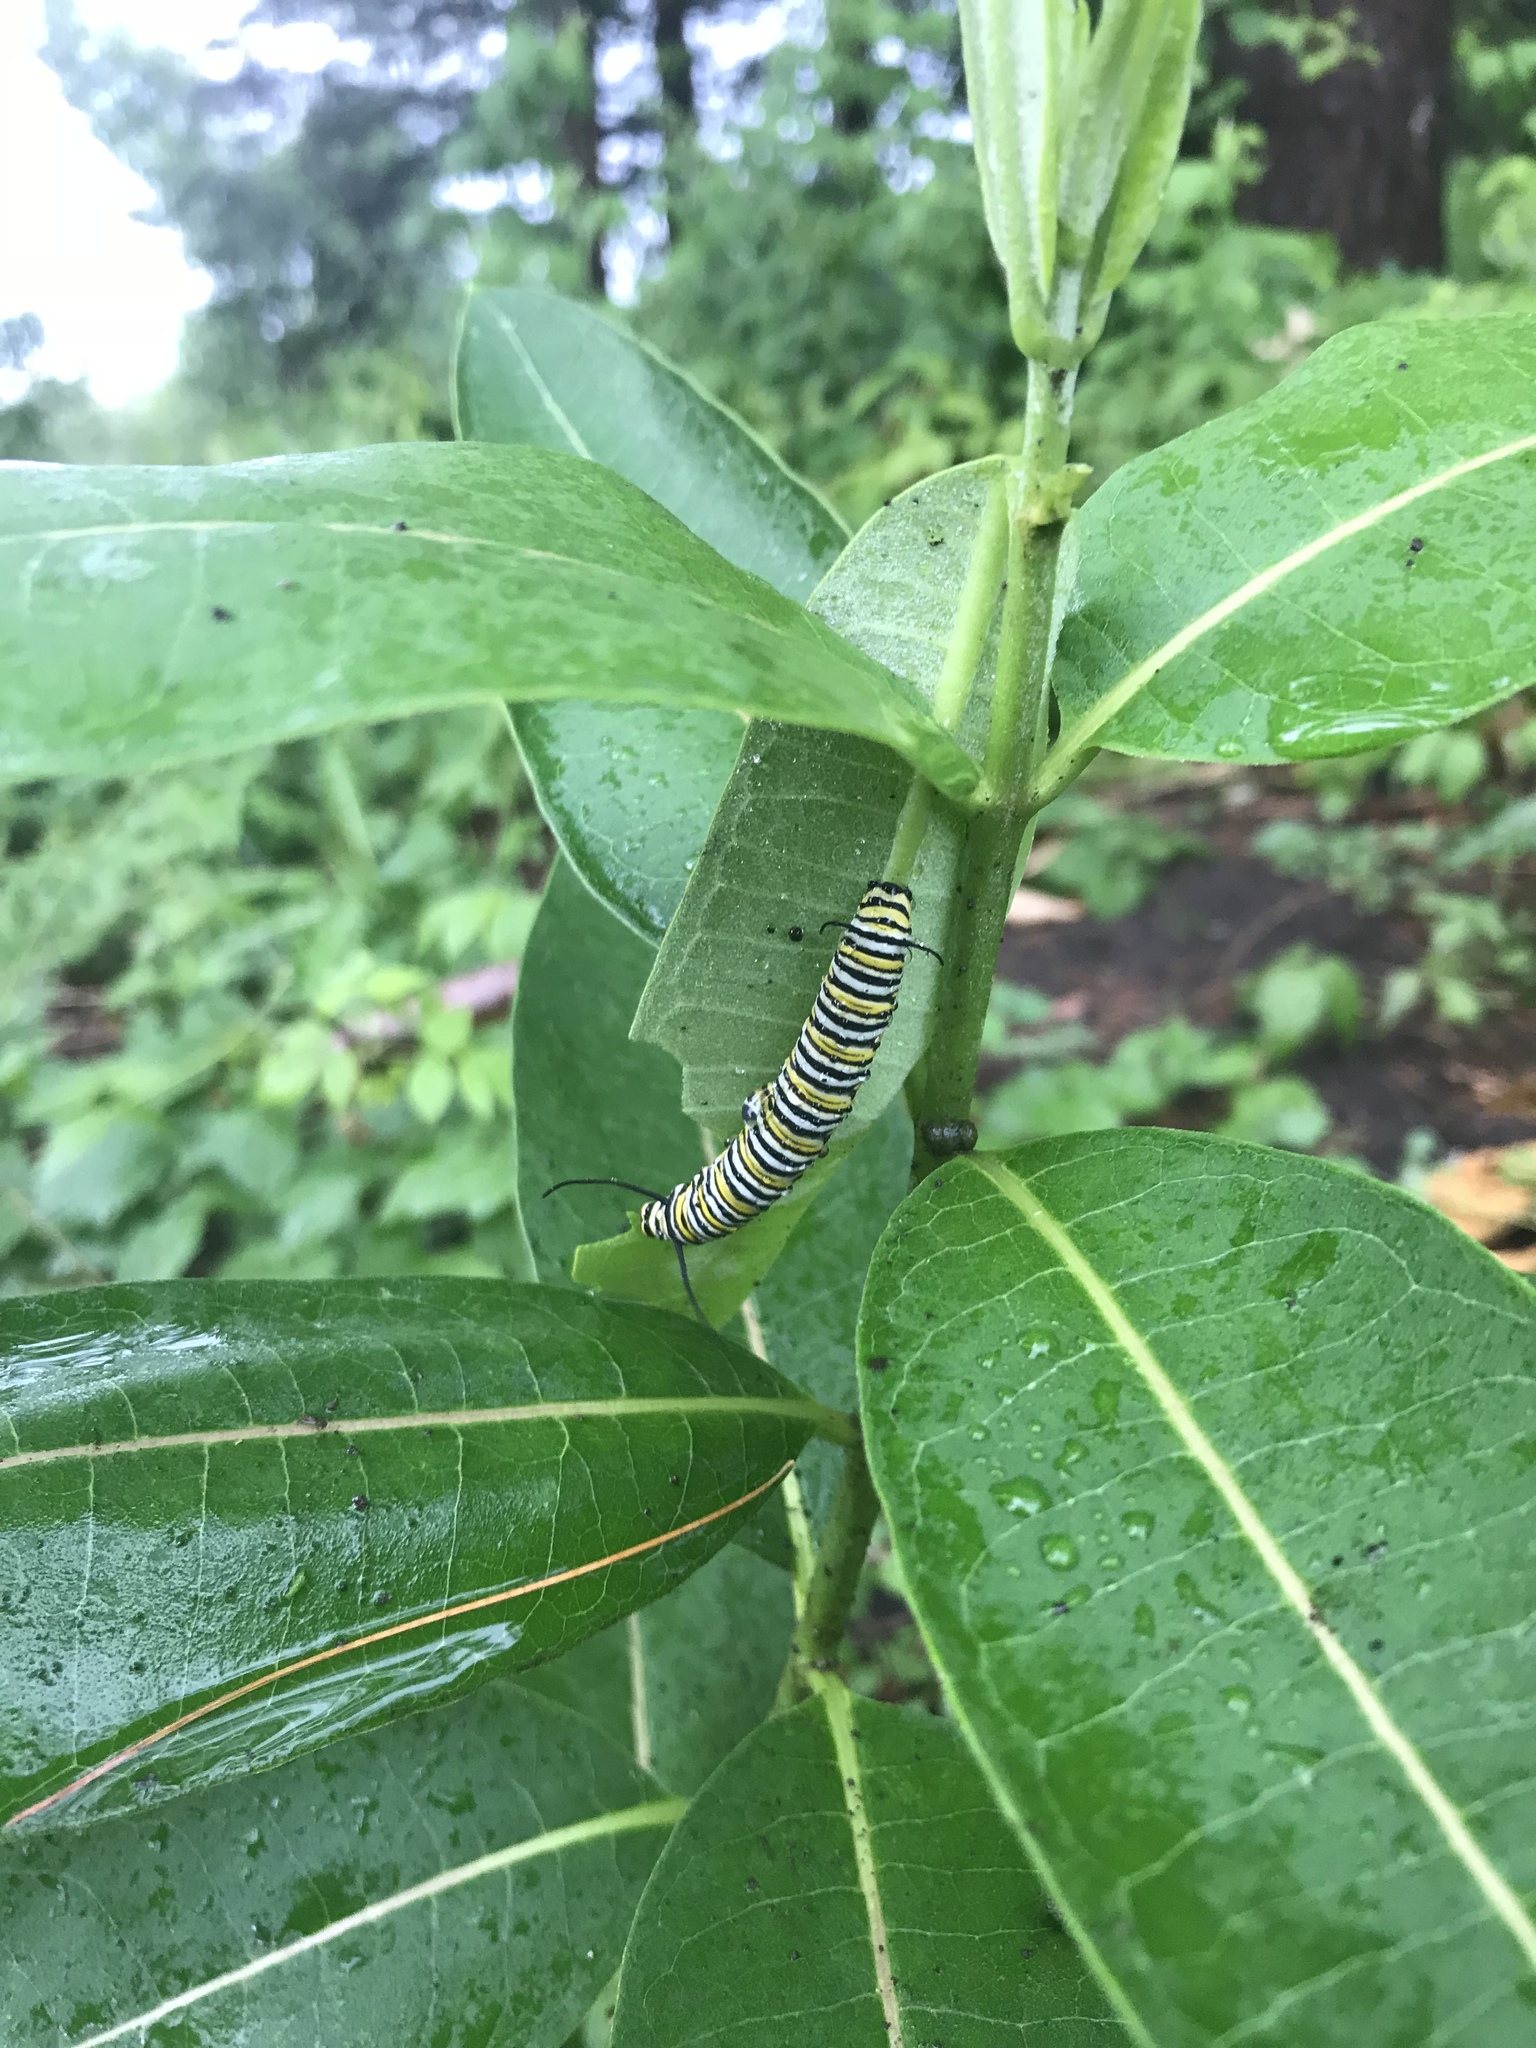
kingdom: Animalia
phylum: Arthropoda
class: Insecta
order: Lepidoptera
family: Nymphalidae
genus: Danaus
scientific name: Danaus plexippus
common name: Monarch
